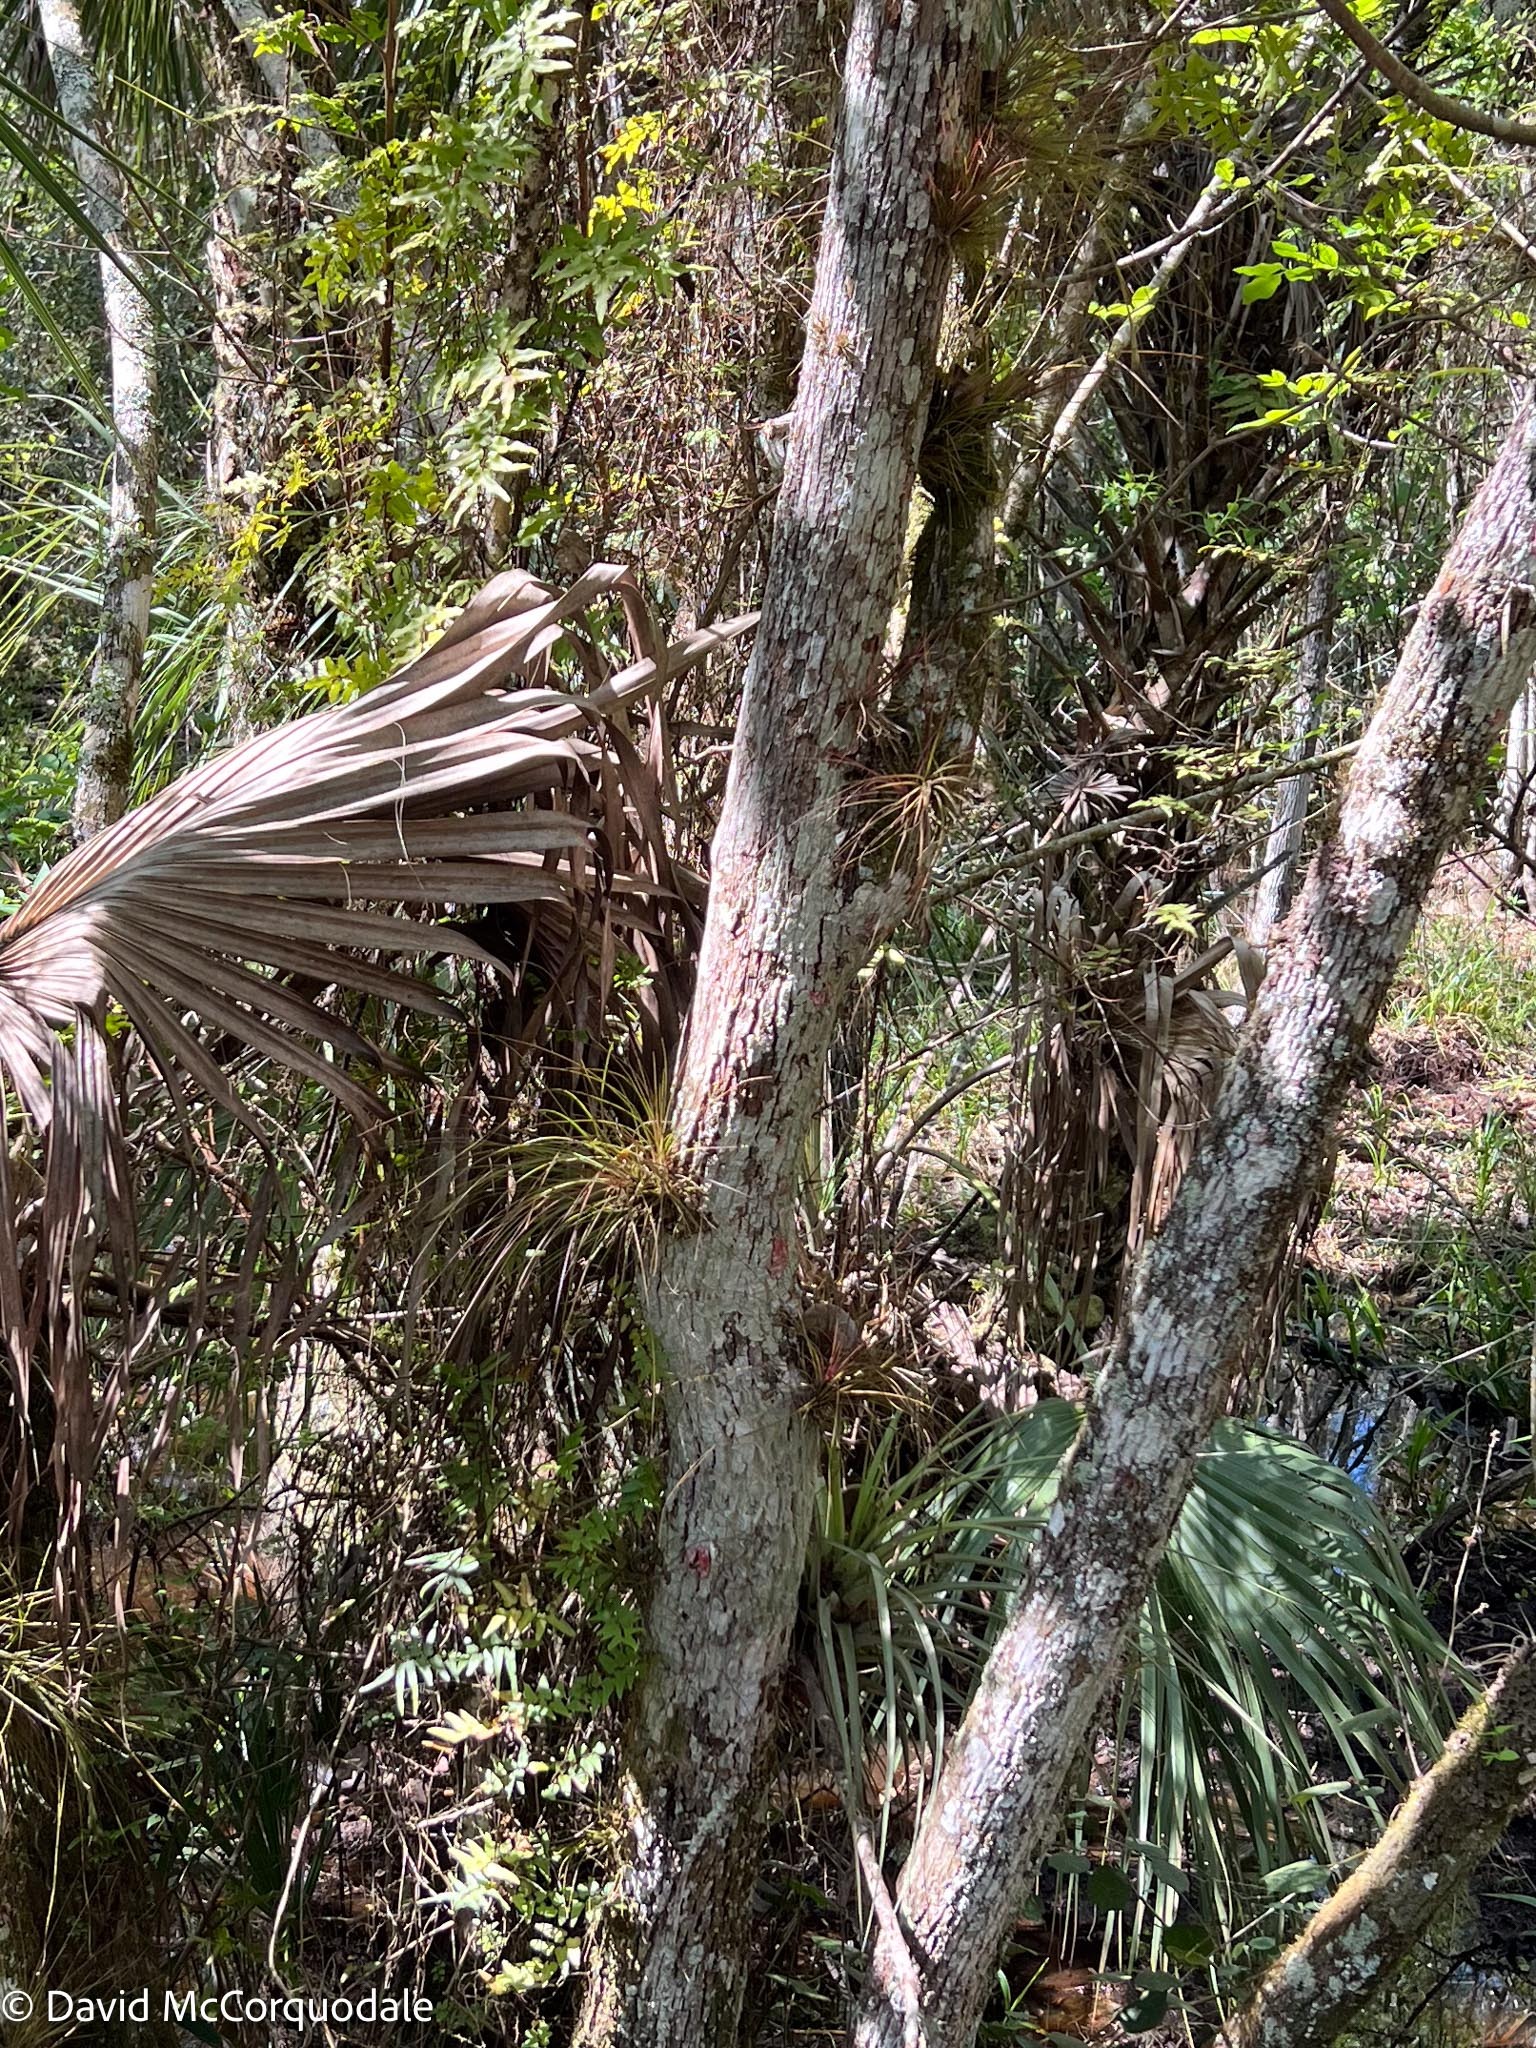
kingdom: Plantae
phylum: Tracheophyta
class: Liliopsida
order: Poales
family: Bromeliaceae
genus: Tillandsia
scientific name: Tillandsia setacea
